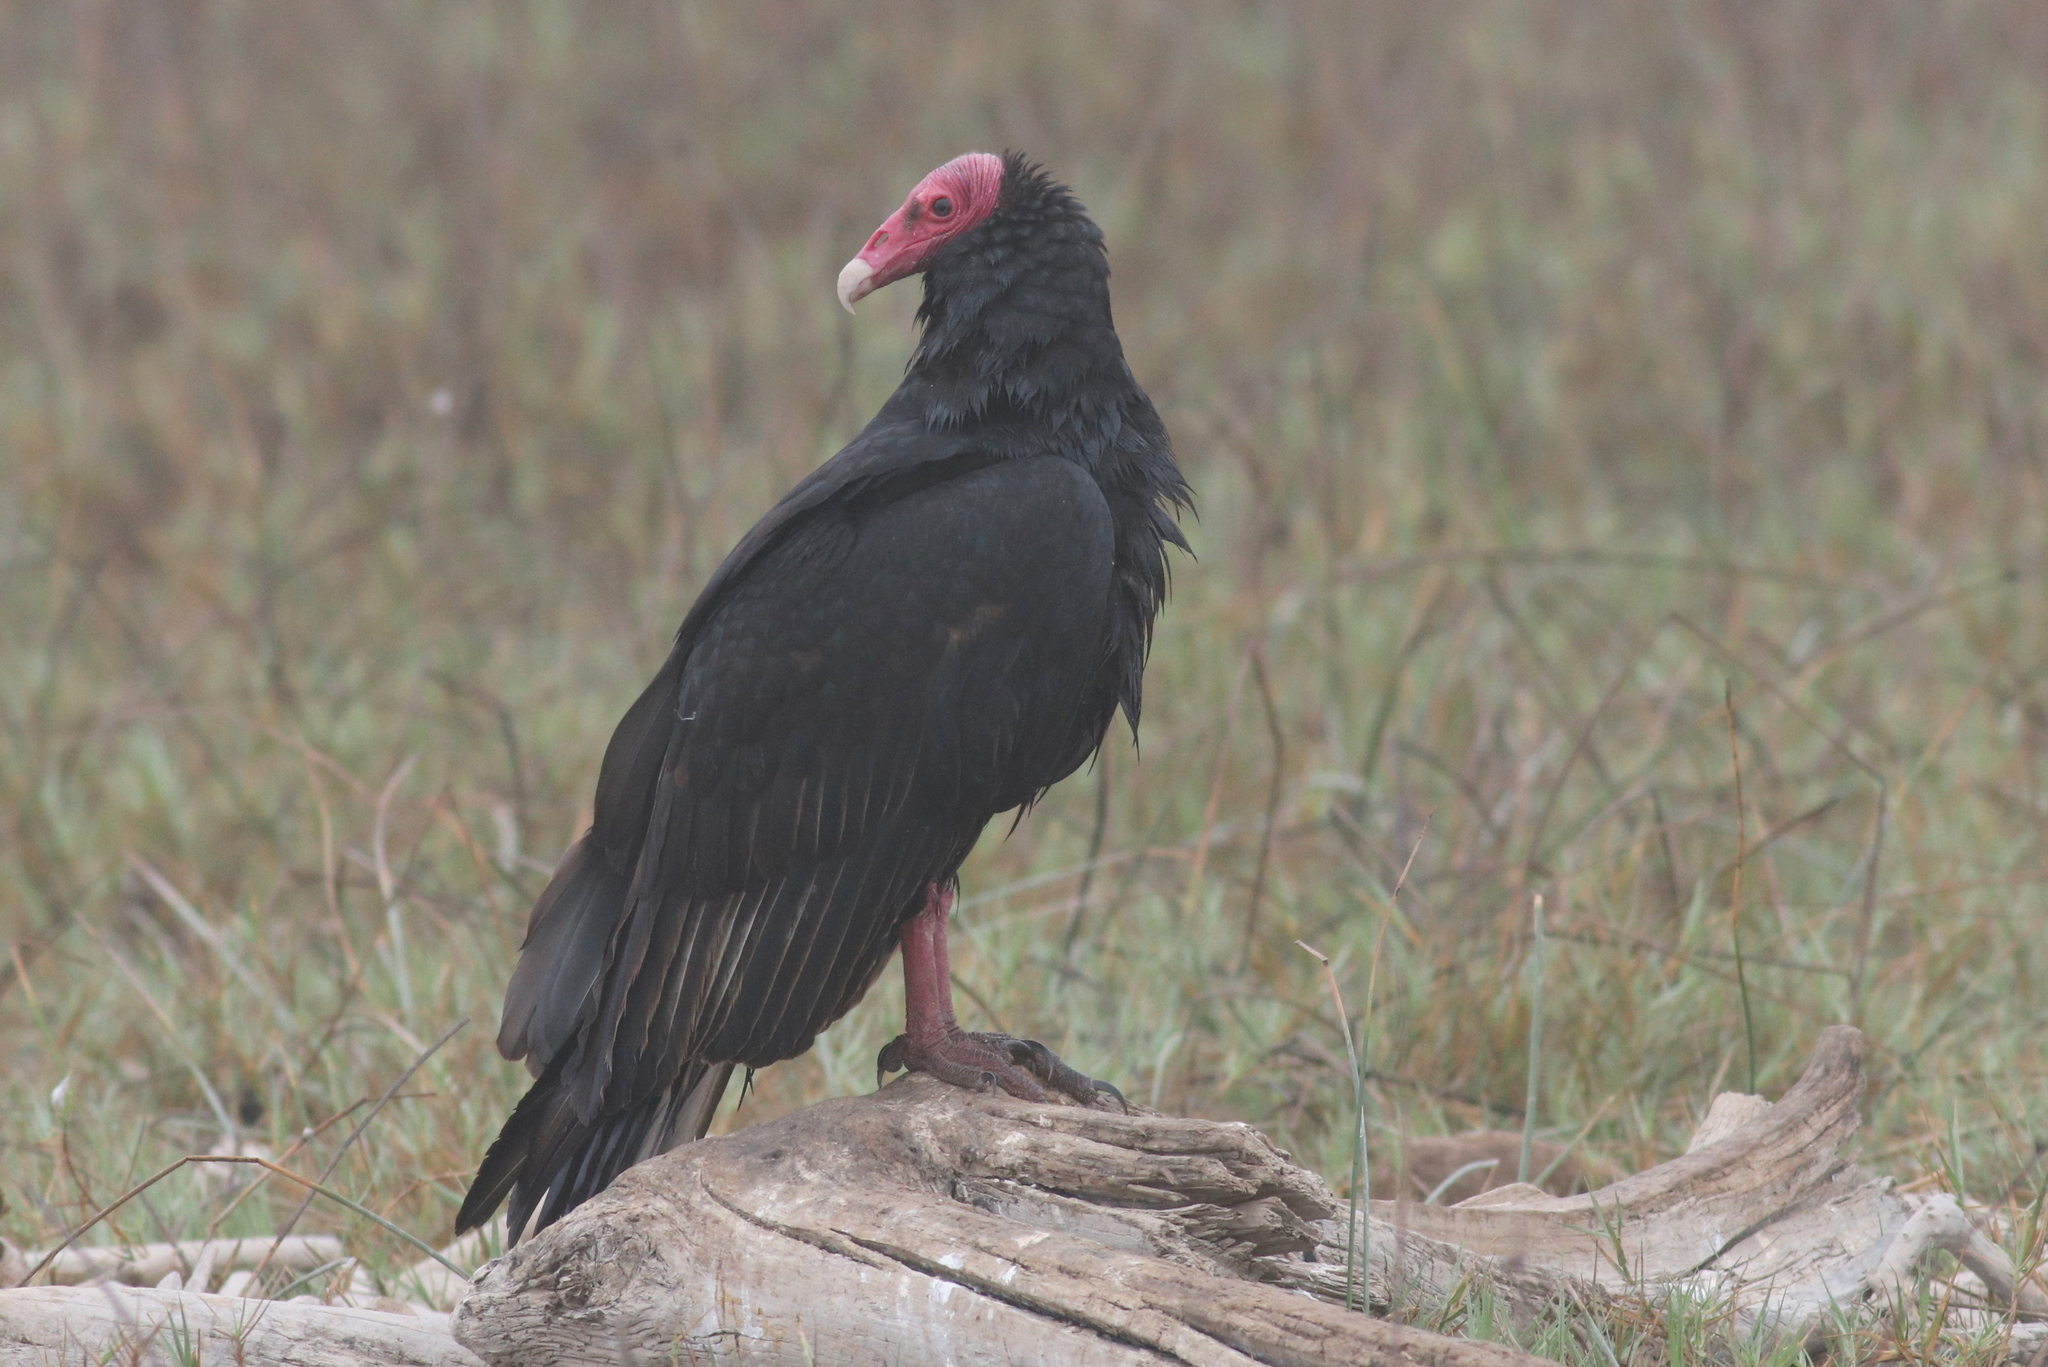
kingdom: Animalia
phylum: Chordata
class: Aves
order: Accipitriformes
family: Cathartidae
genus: Cathartes
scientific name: Cathartes aura
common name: Turkey vulture
